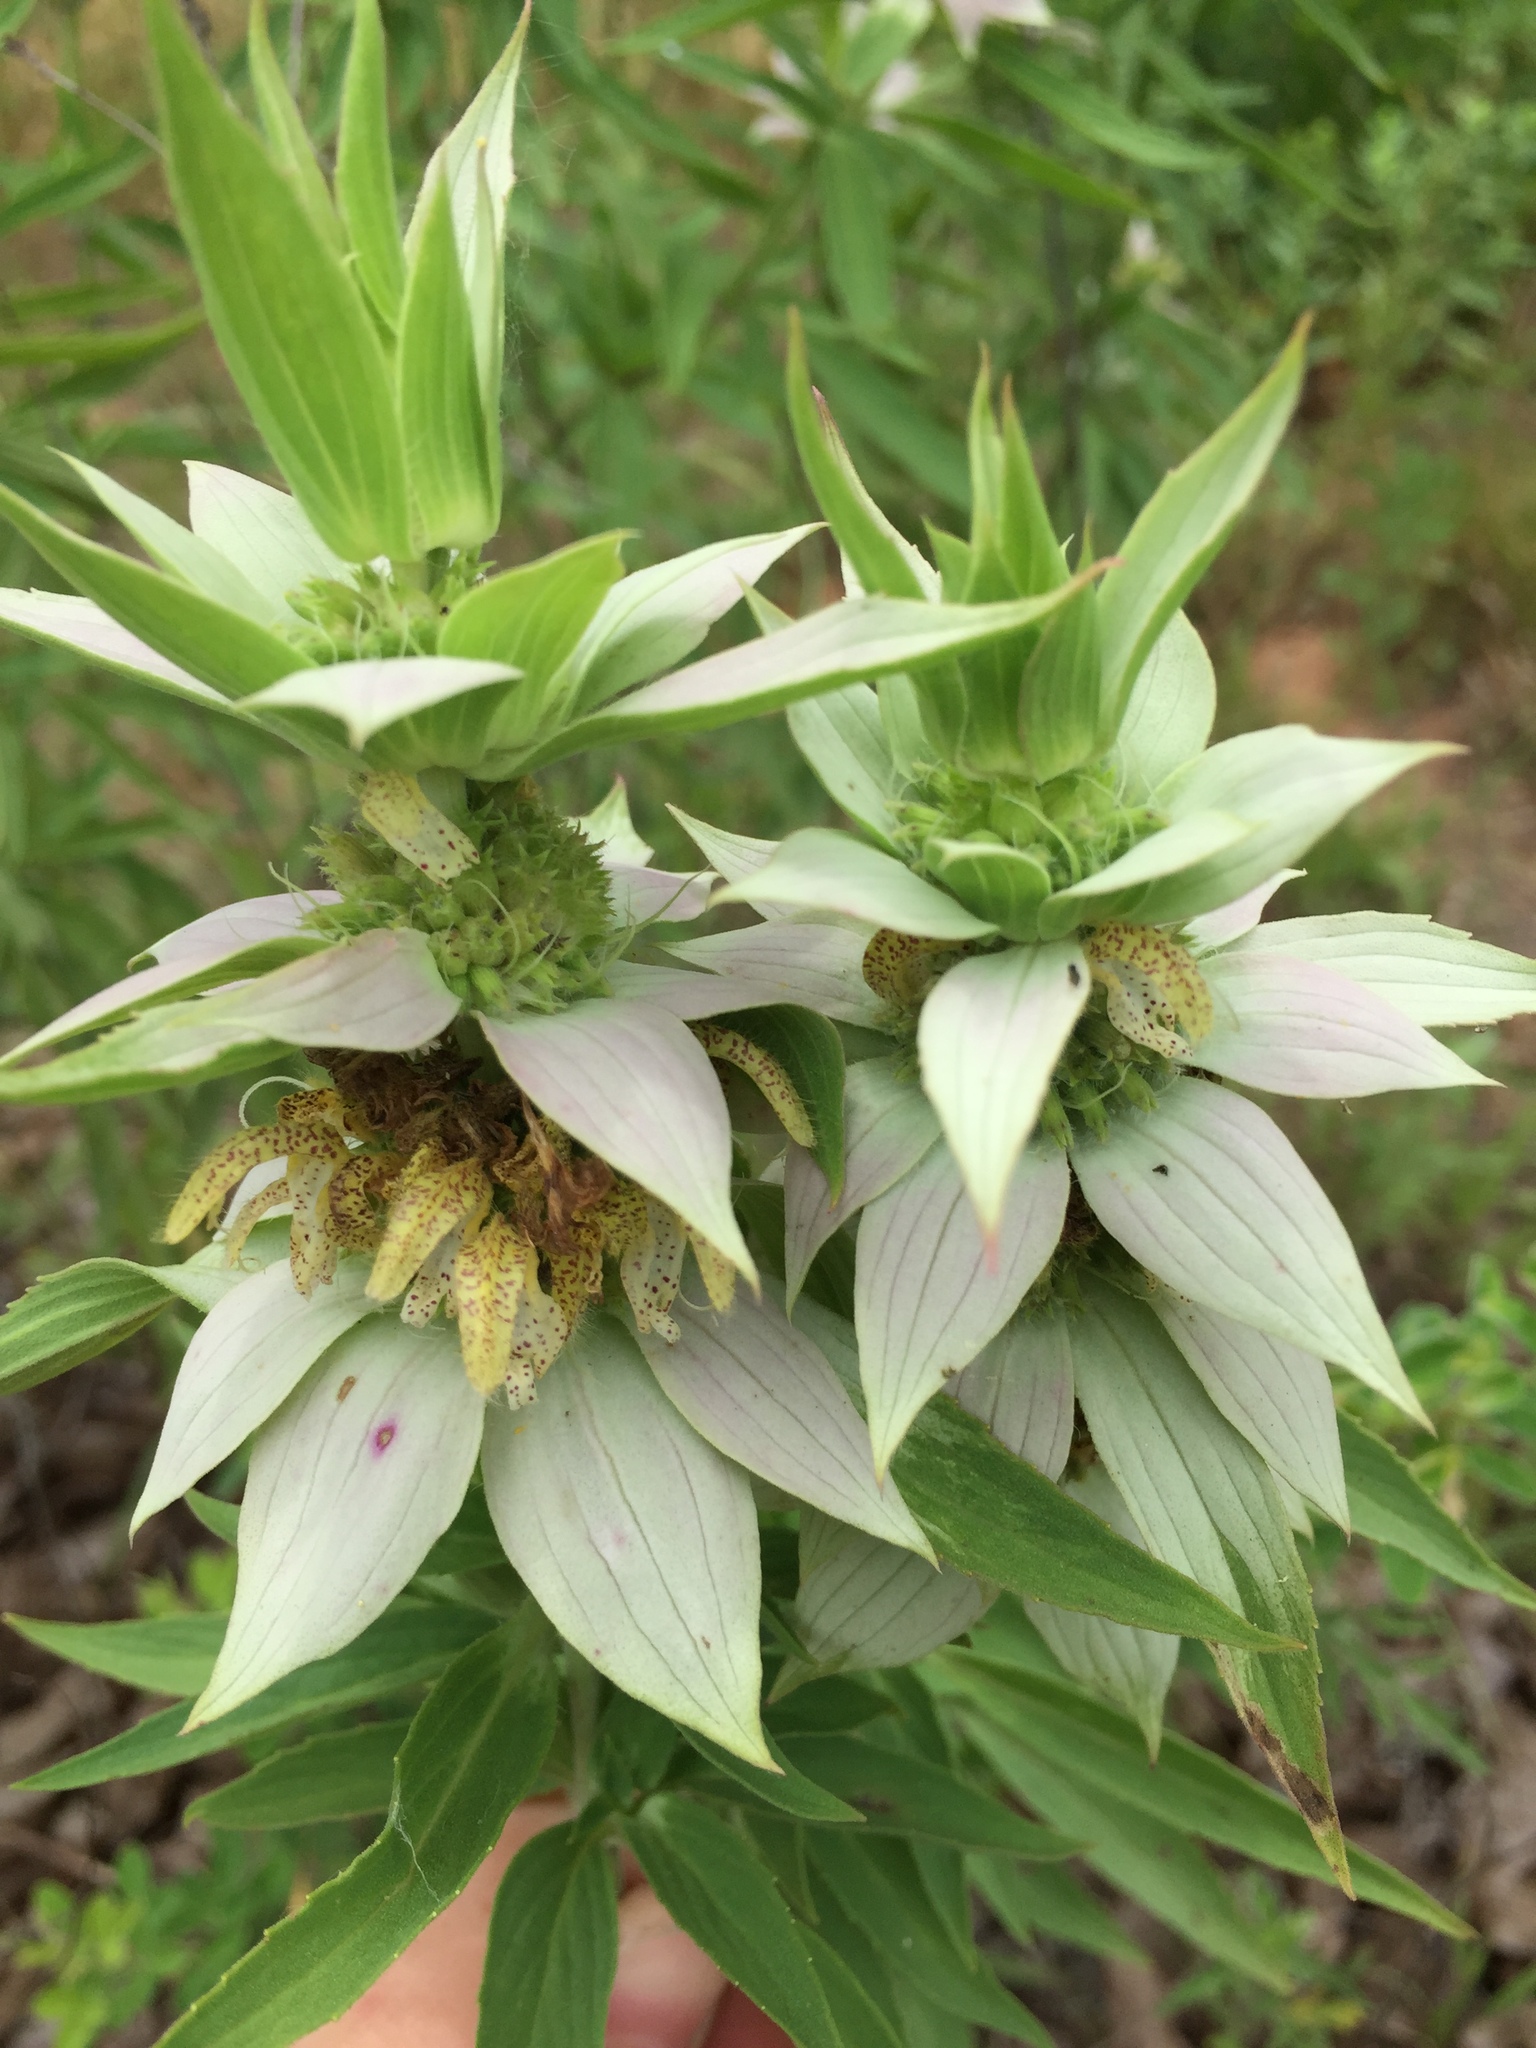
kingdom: Plantae
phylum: Tracheophyta
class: Magnoliopsida
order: Lamiales
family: Lamiaceae
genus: Monarda
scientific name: Monarda punctata
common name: Dotted monarda
